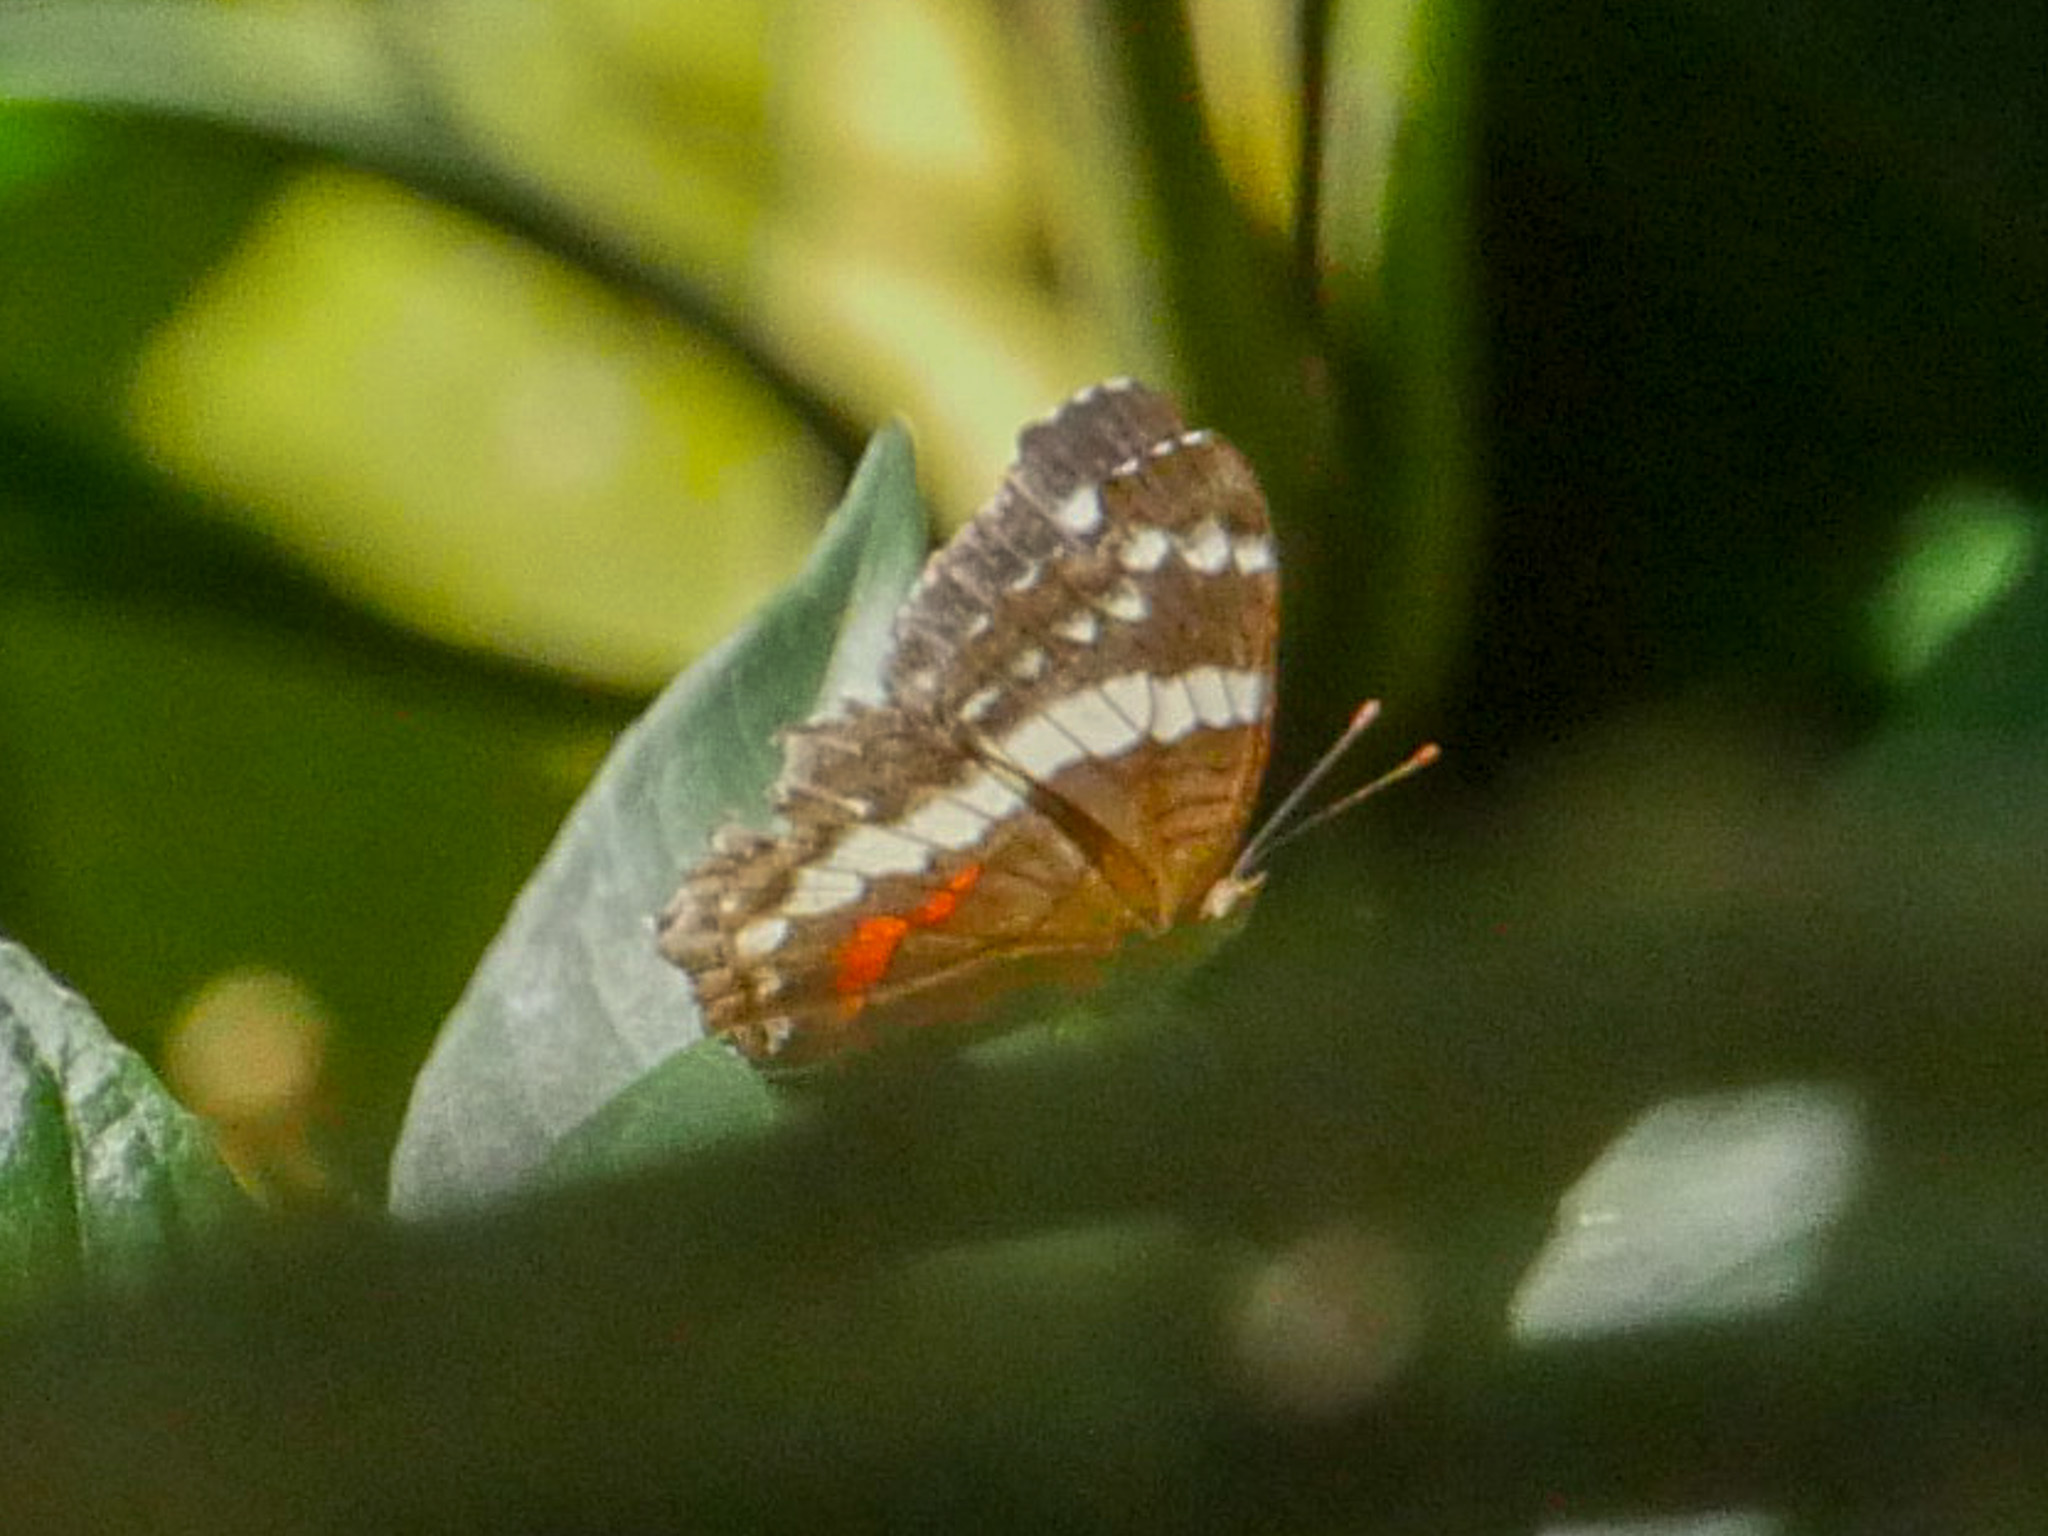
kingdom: Animalia
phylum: Arthropoda
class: Insecta
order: Lepidoptera
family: Nymphalidae
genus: Anartia
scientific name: Anartia fatima
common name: Banded peacock
